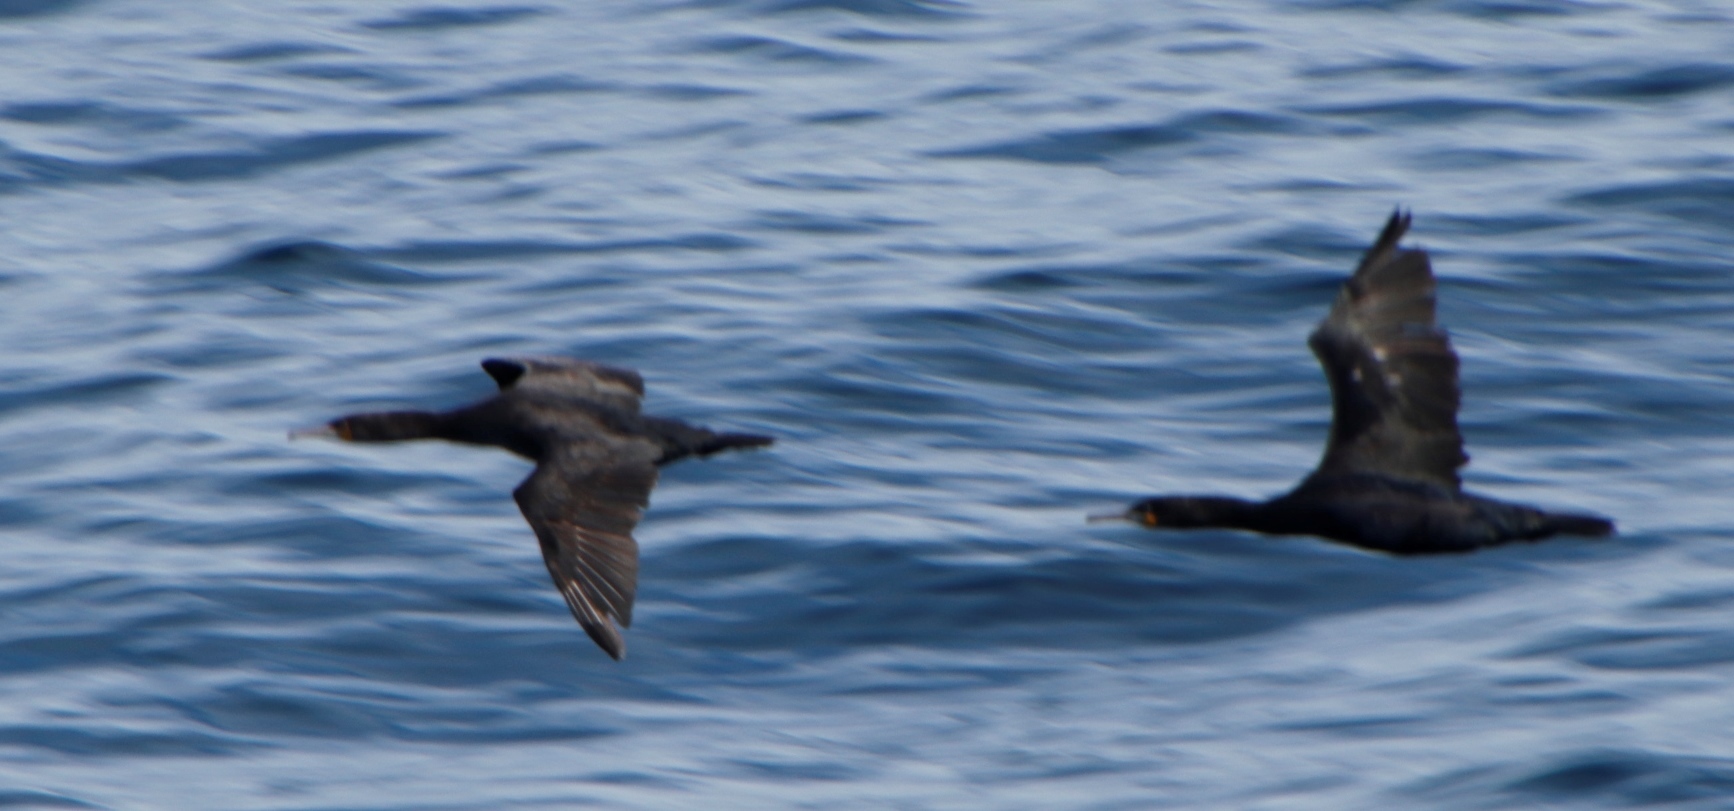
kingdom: Animalia
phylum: Chordata
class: Aves
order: Suliformes
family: Phalacrocoracidae
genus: Phalacrocorax
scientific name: Phalacrocorax capensis
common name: Cape cormorant
